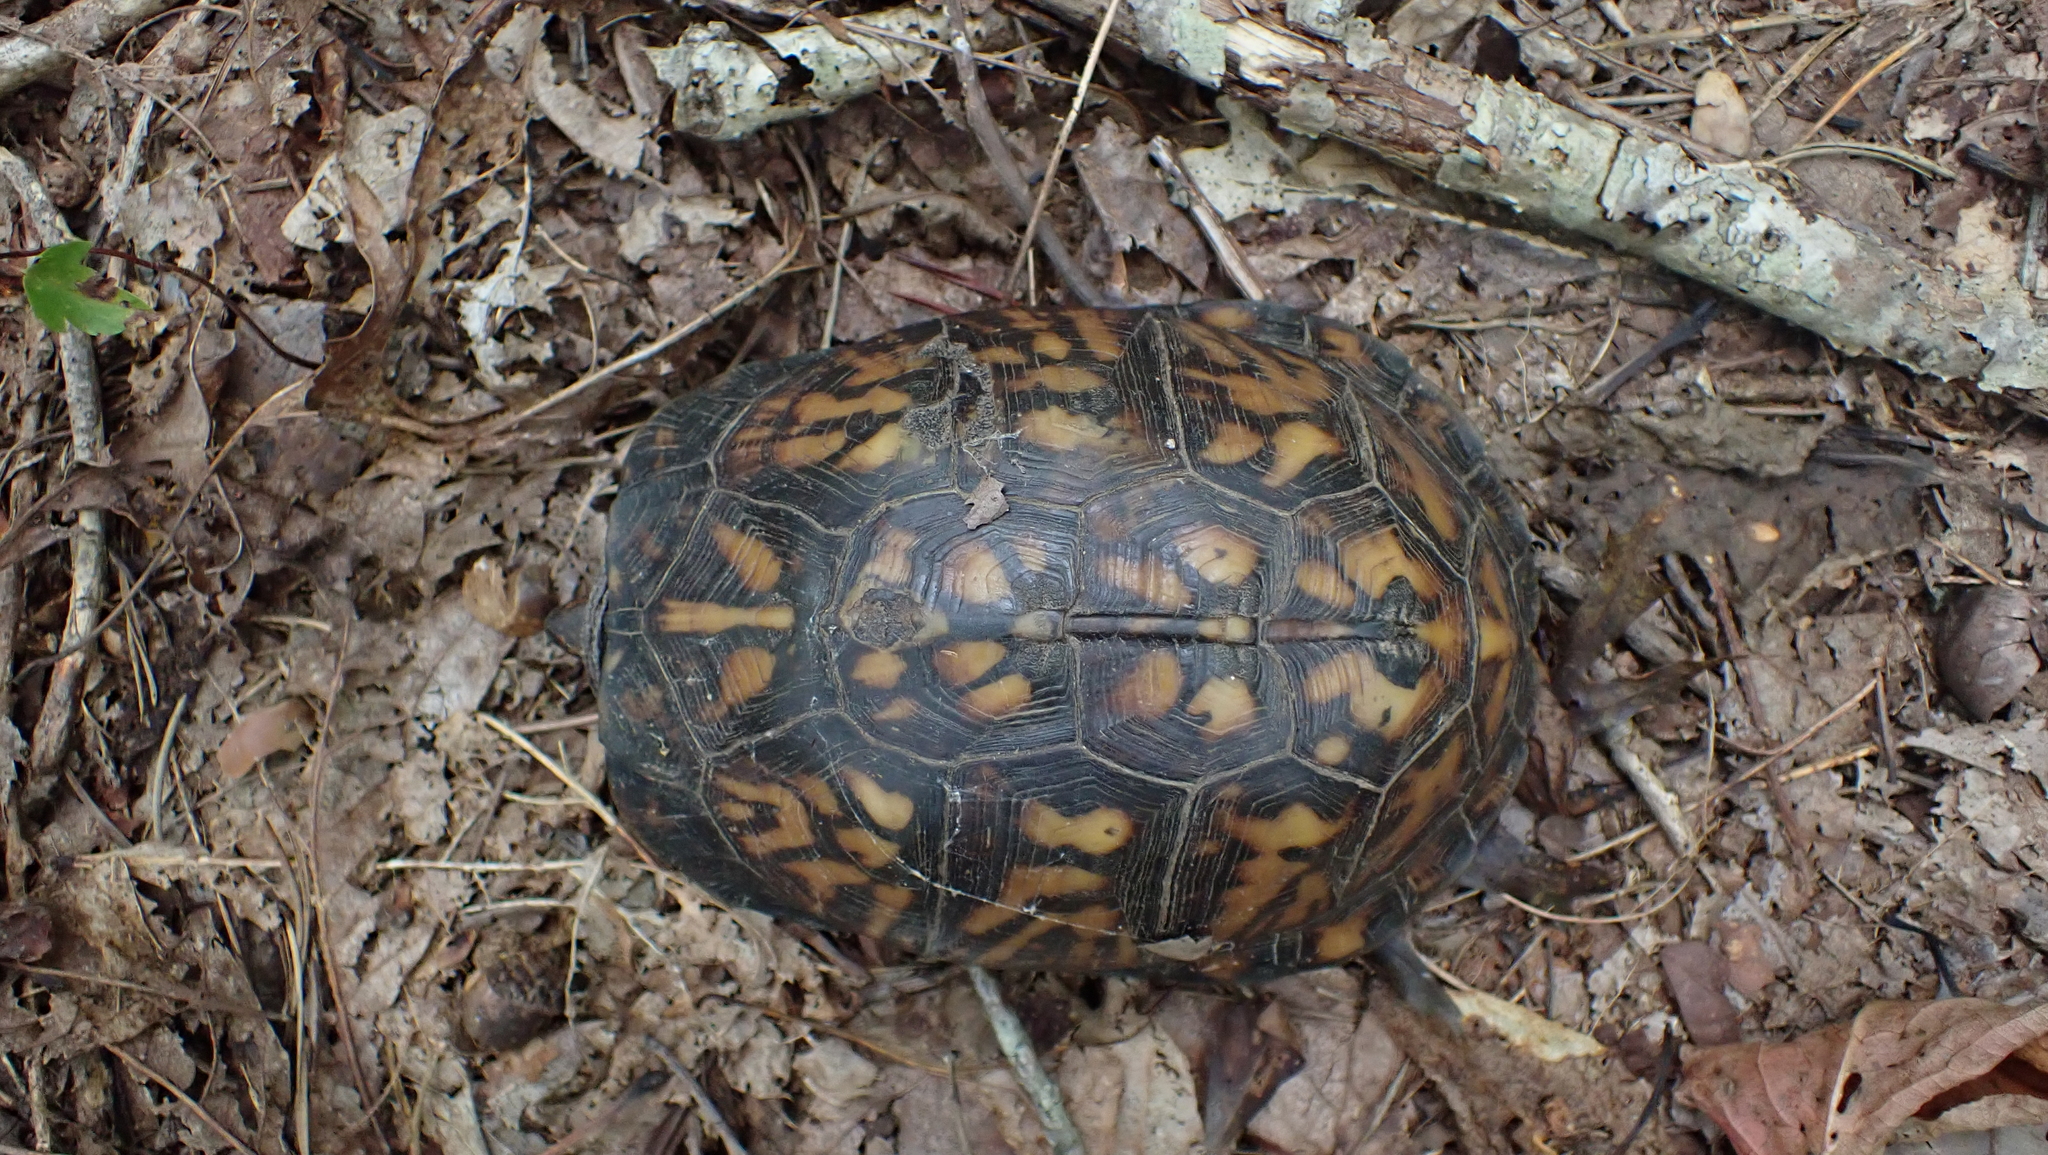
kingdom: Animalia
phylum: Chordata
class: Testudines
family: Emydidae
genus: Terrapene
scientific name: Terrapene carolina
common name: Common box turtle
